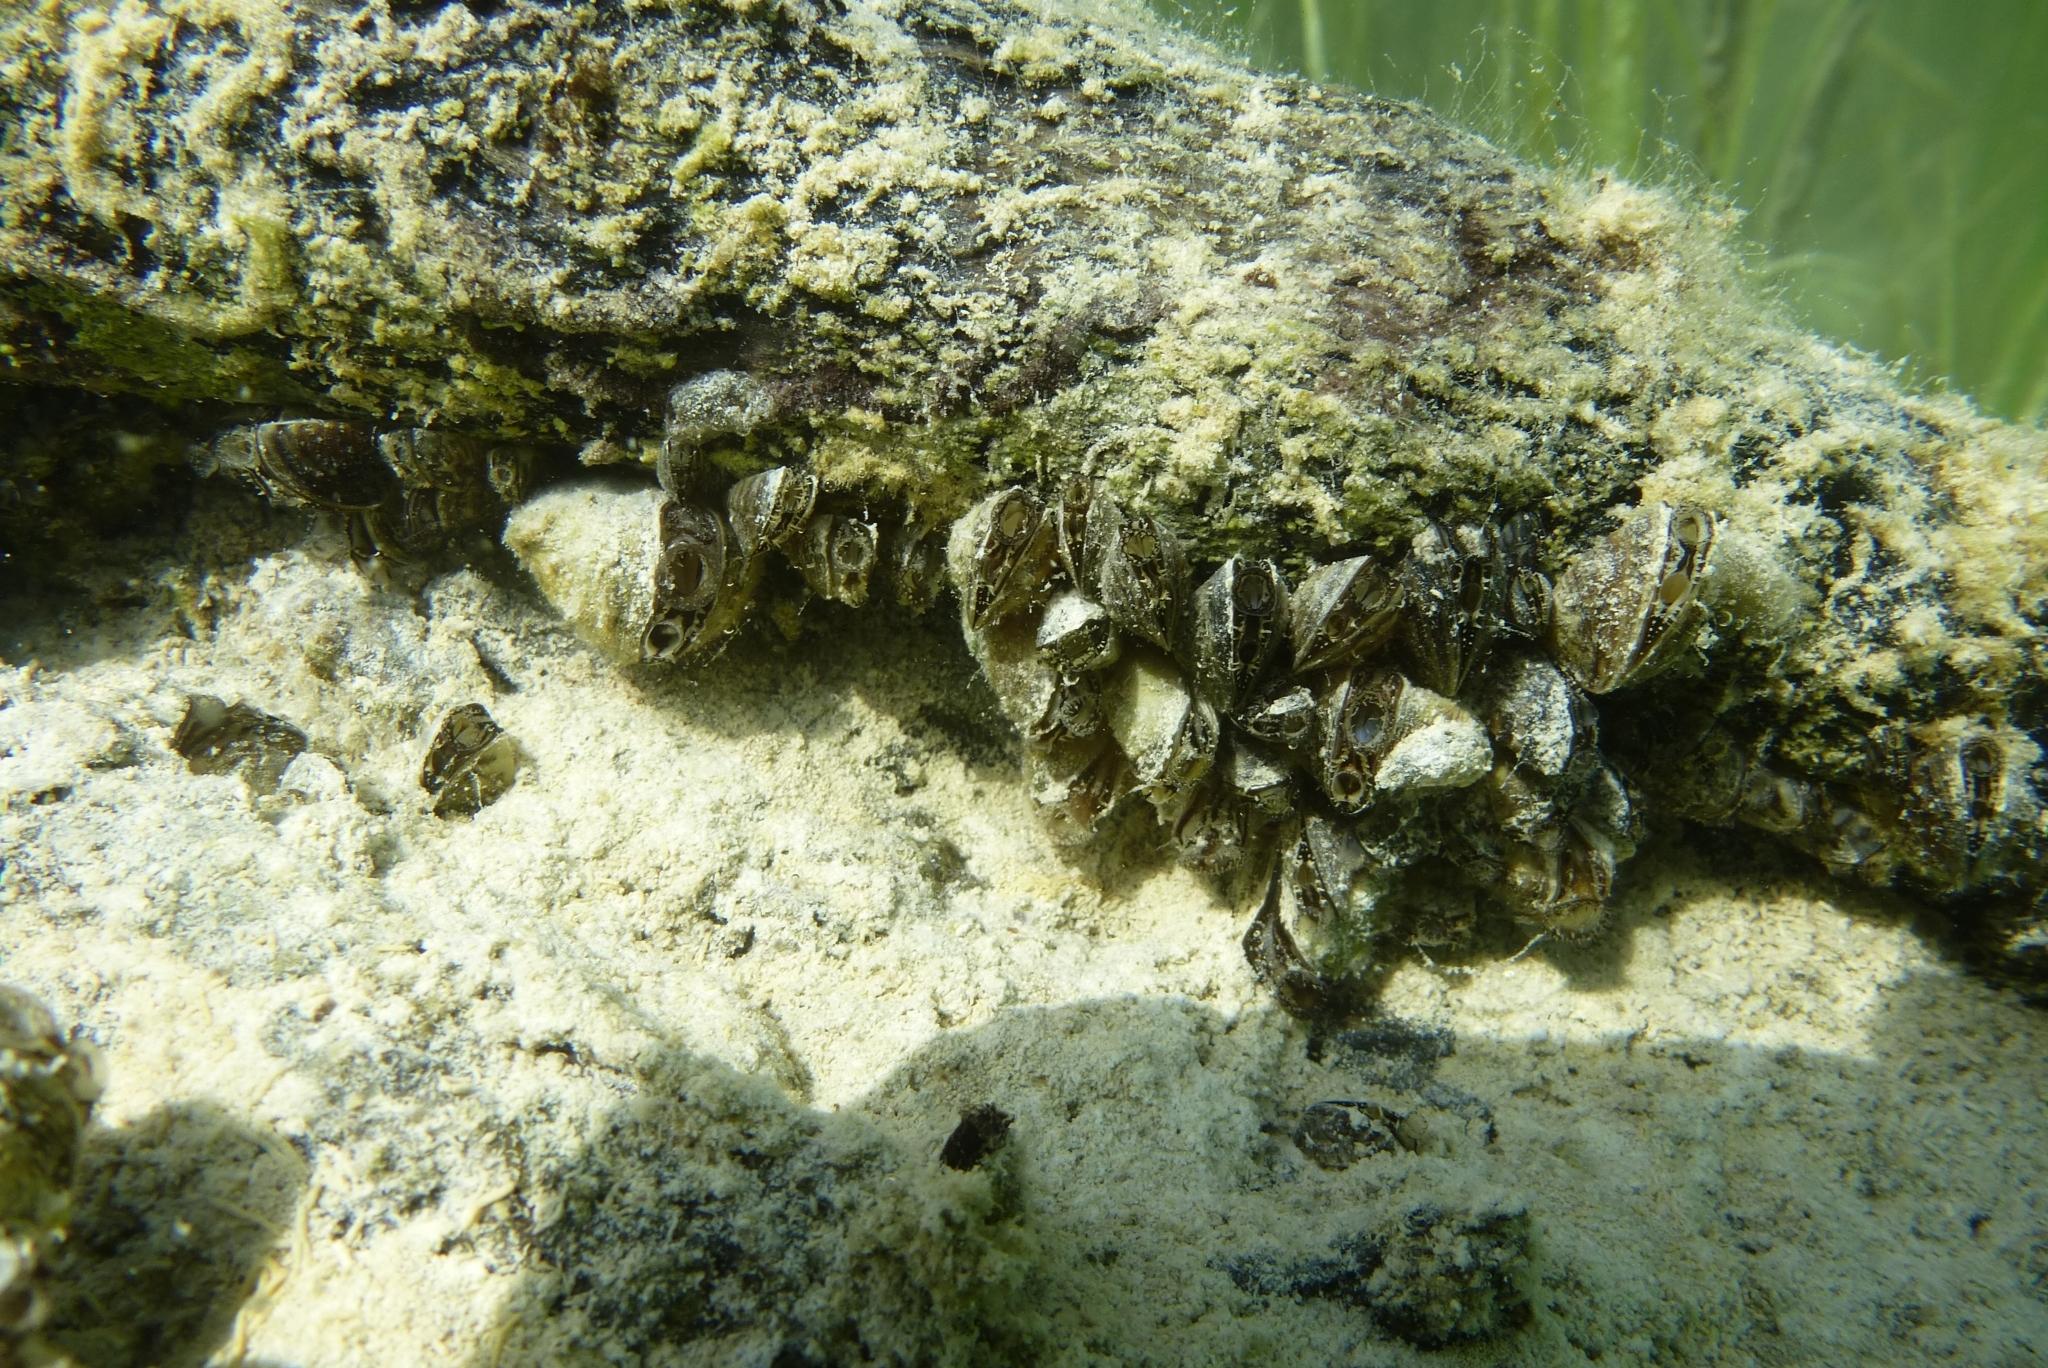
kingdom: Animalia
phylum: Mollusca
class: Bivalvia
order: Myida
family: Dreissenidae
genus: Dreissena
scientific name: Dreissena polymorpha
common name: Zebra mussel
